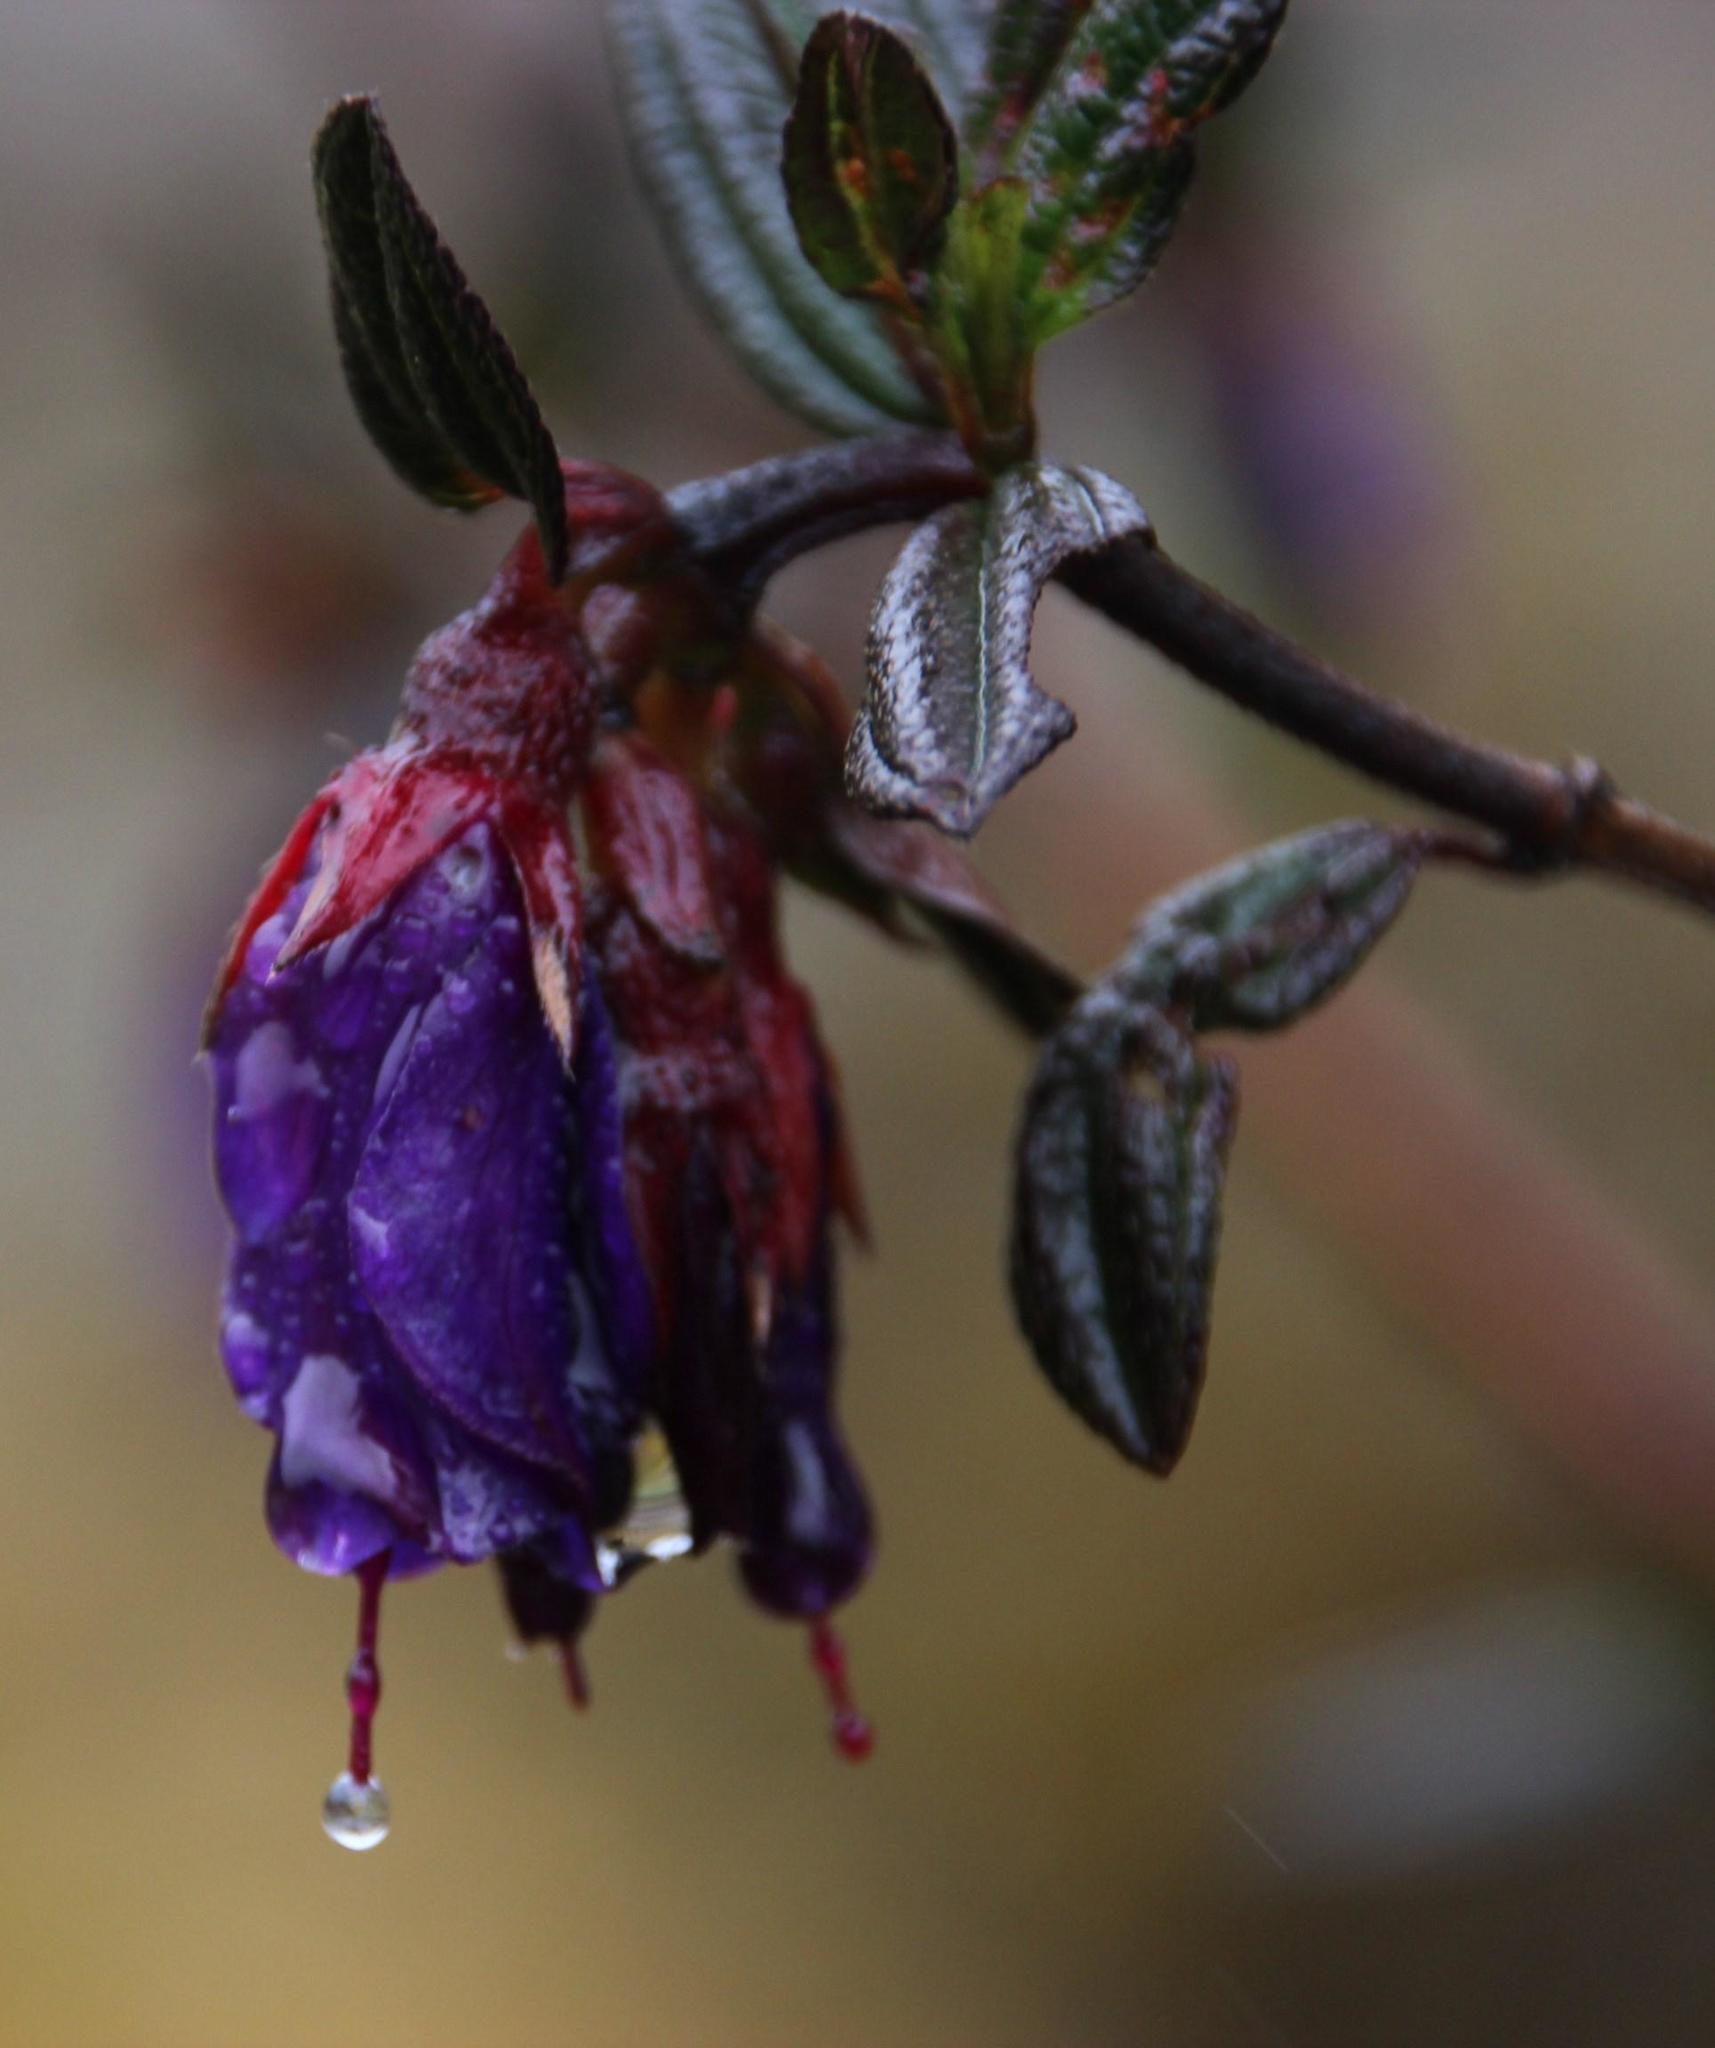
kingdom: Plantae
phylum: Tracheophyta
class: Magnoliopsida
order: Myrtales
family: Melastomataceae
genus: Brachyotum
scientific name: Brachyotum rostratum
